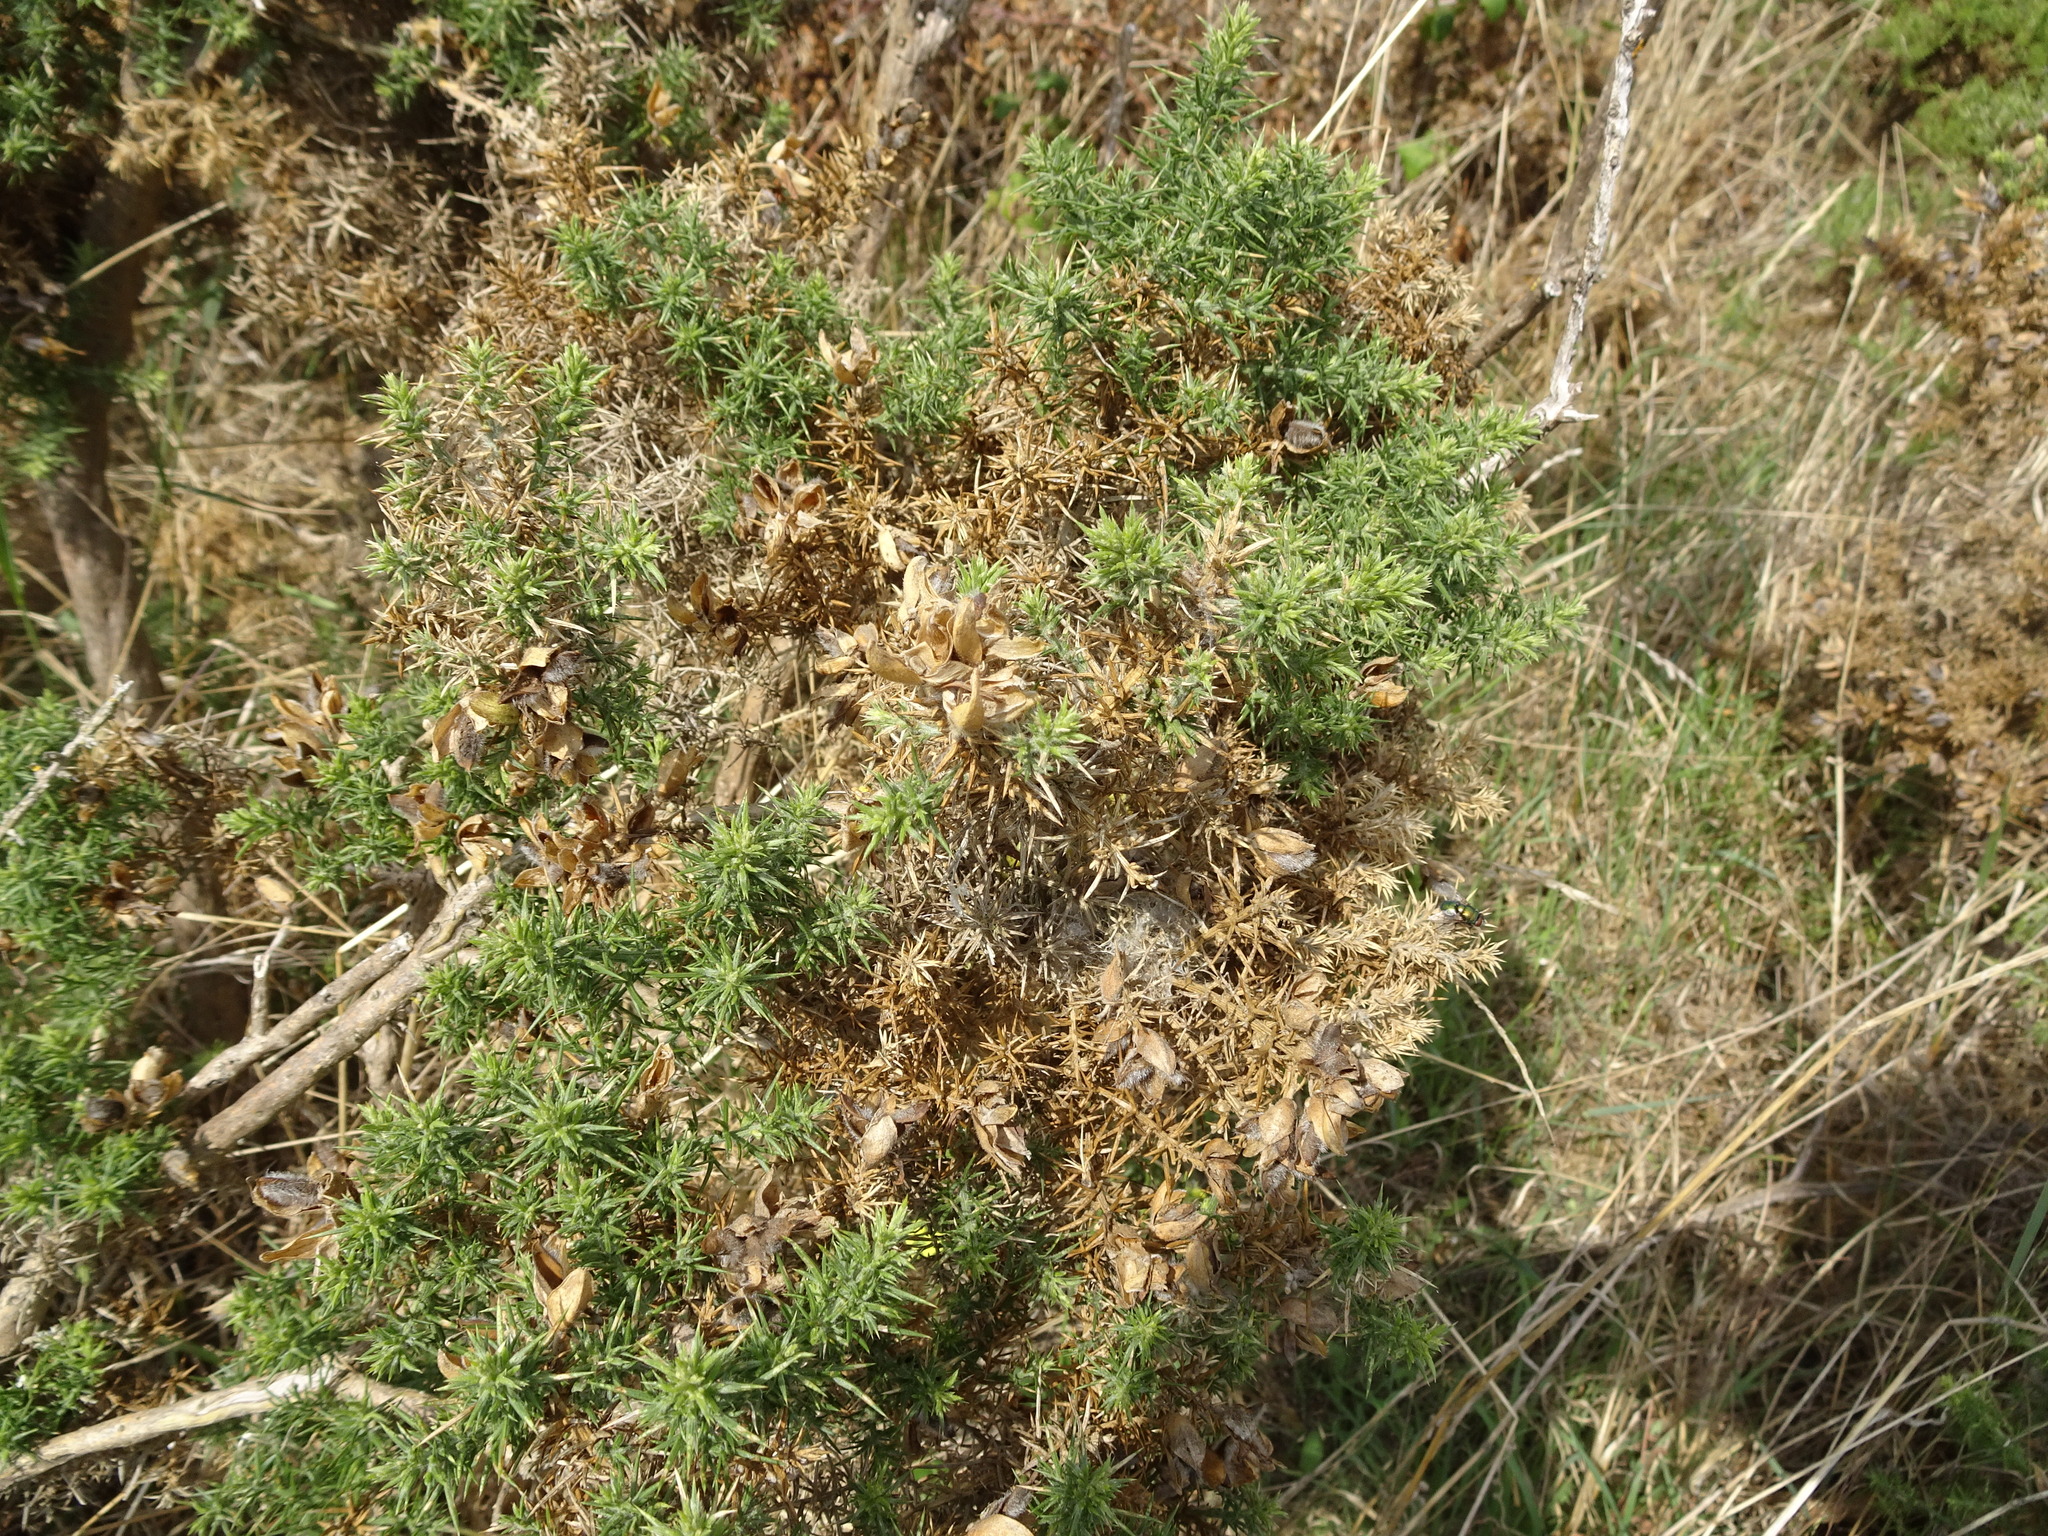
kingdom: Plantae
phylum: Tracheophyta
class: Magnoliopsida
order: Fabales
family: Fabaceae
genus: Ulex
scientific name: Ulex europaeus
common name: Common gorse
